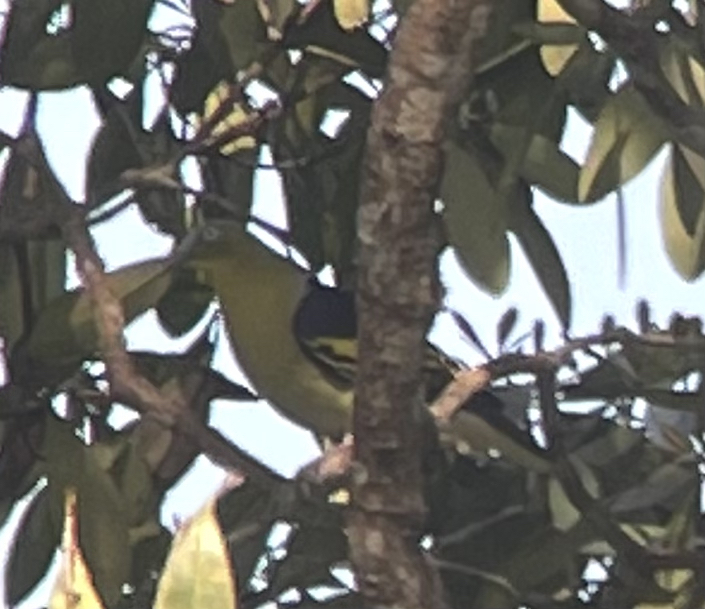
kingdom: Animalia
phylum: Chordata
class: Aves
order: Columbiformes
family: Columbidae
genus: Treron
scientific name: Treron aromaticus
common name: Buru green pigeon
